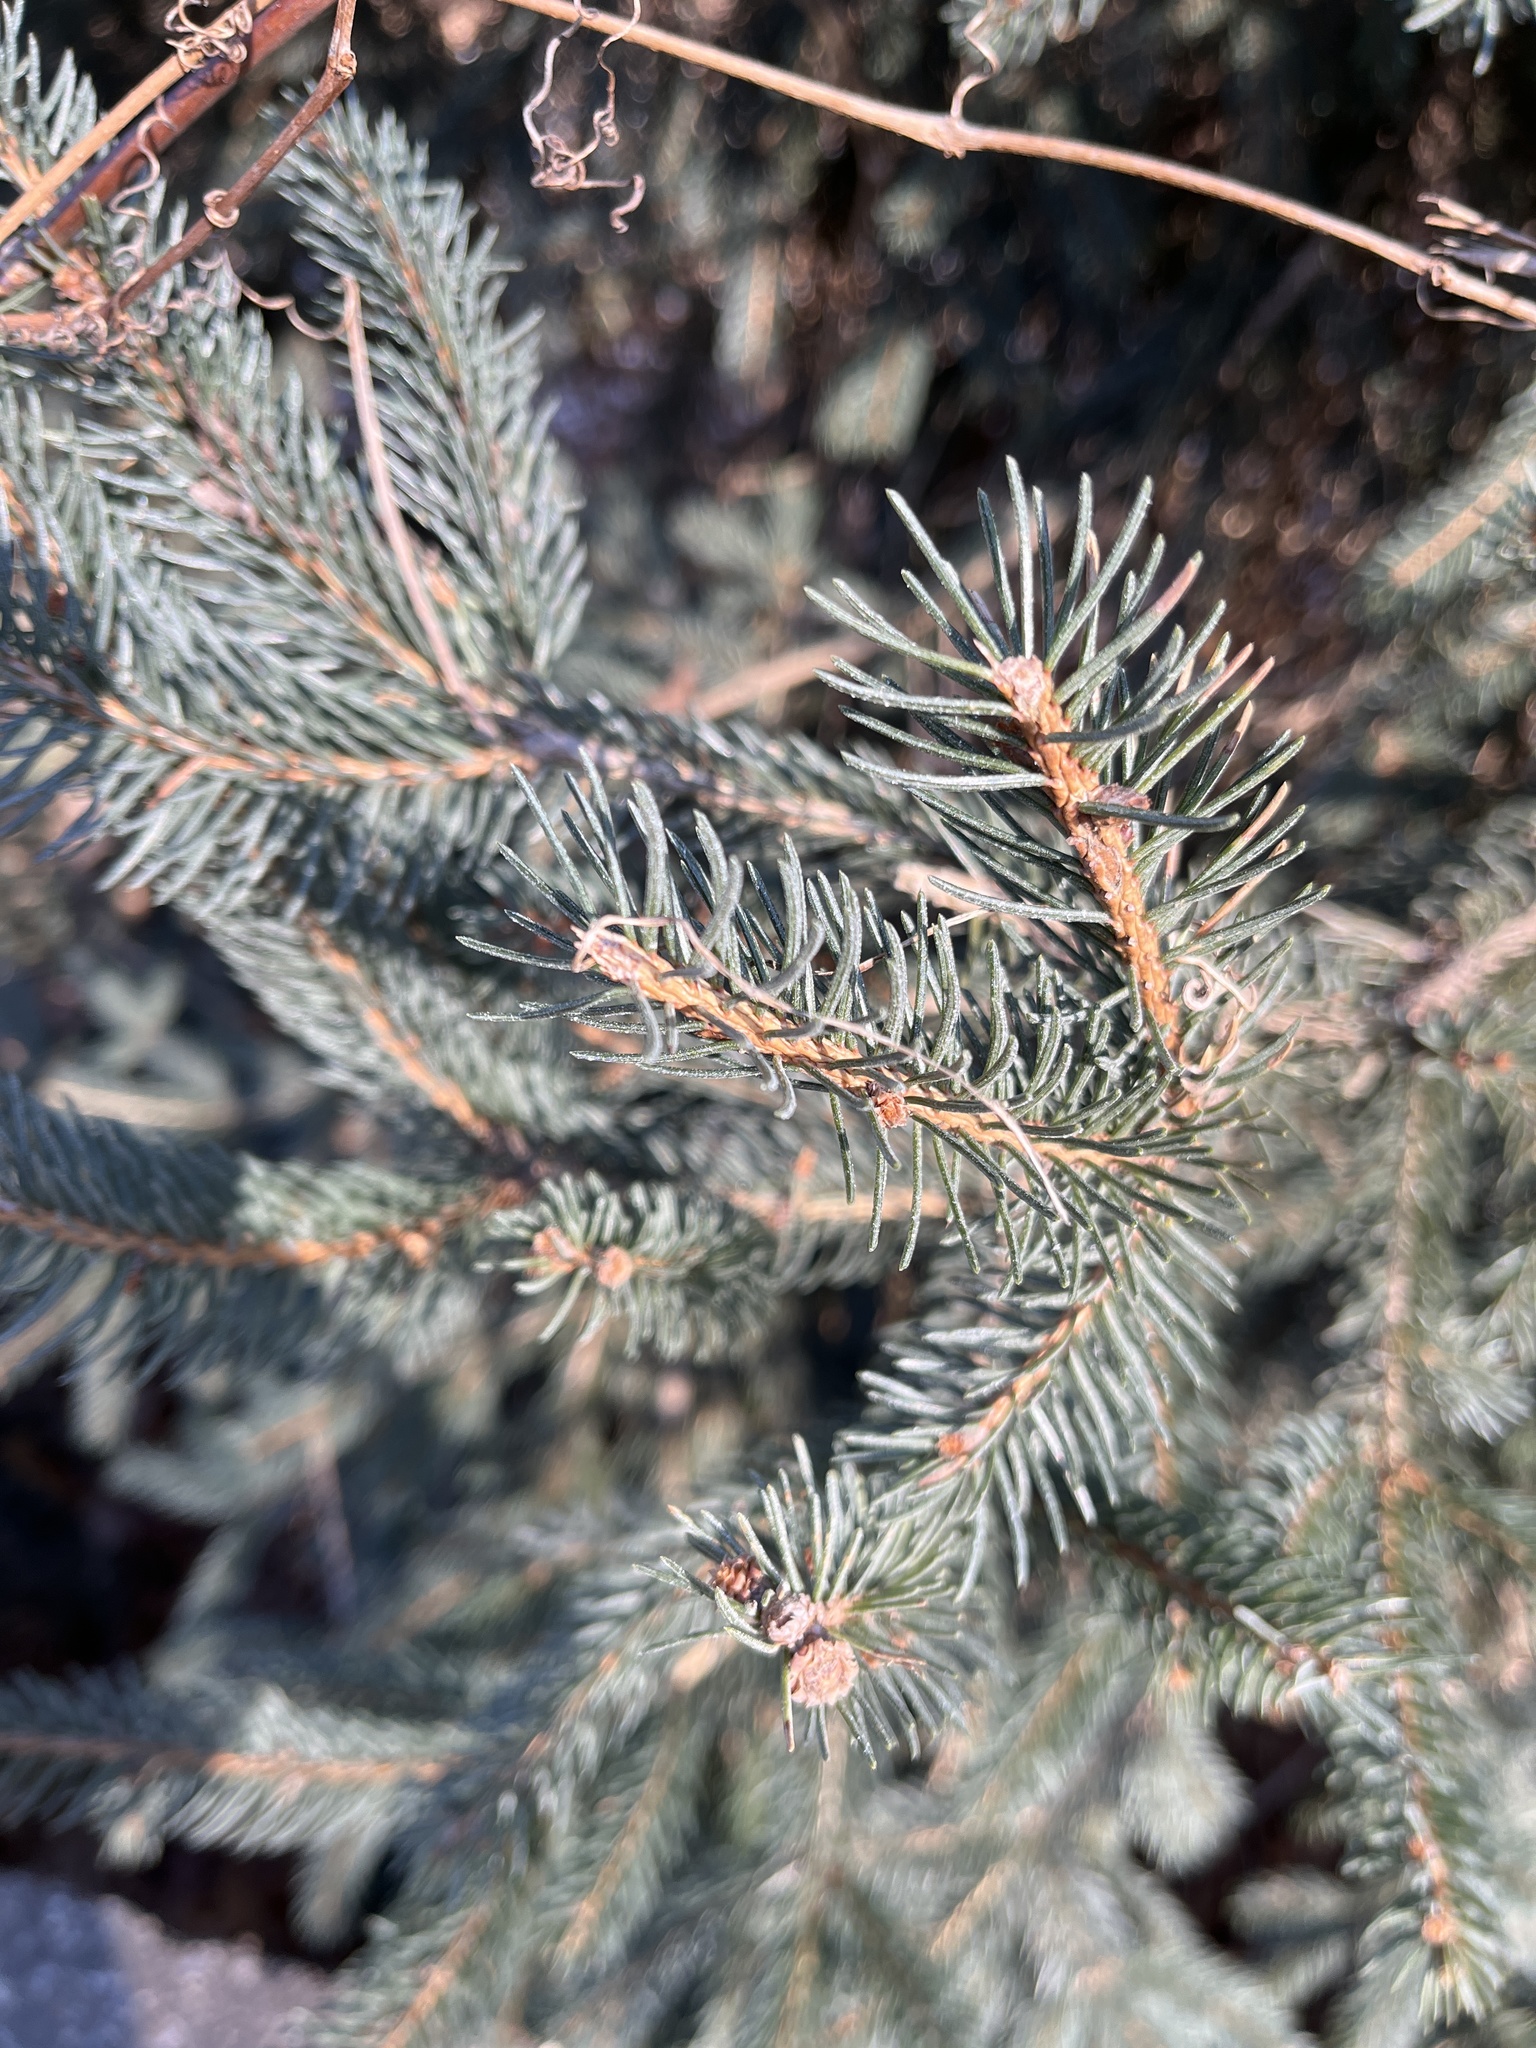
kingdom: Plantae
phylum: Tracheophyta
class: Pinopsida
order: Pinales
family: Pinaceae
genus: Picea
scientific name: Picea pungens
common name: Colorado spruce
